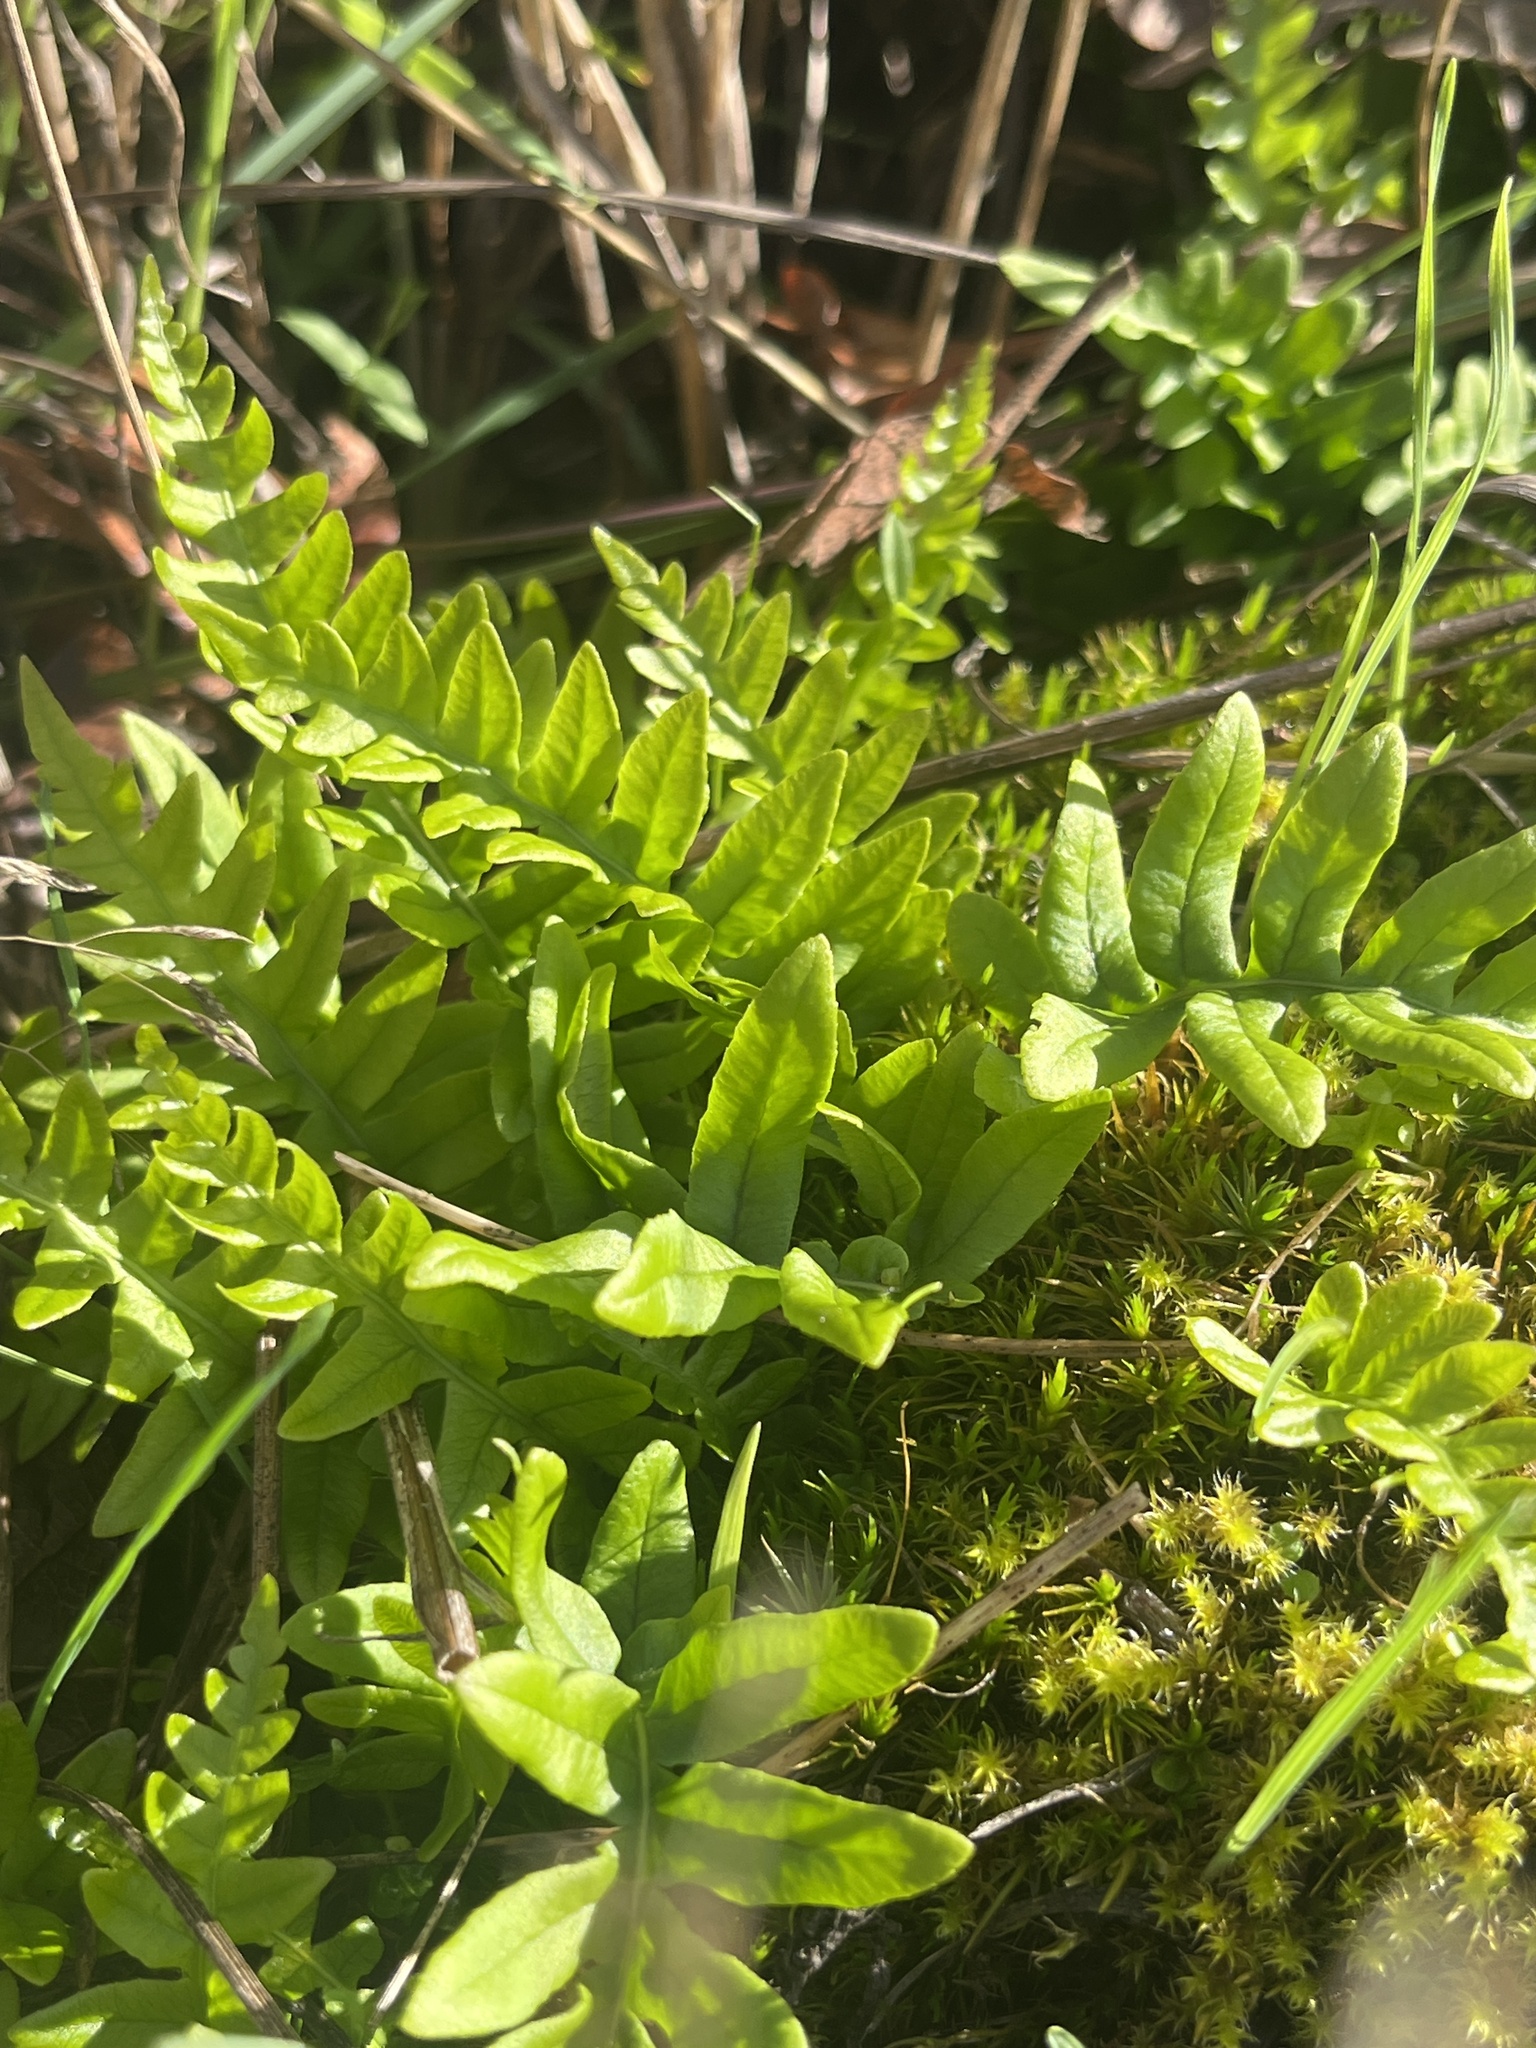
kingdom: Plantae
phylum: Tracheophyta
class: Polypodiopsida
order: Polypodiales
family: Polypodiaceae
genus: Polypodium
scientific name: Polypodium glycyrrhiza
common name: Licorice fern
